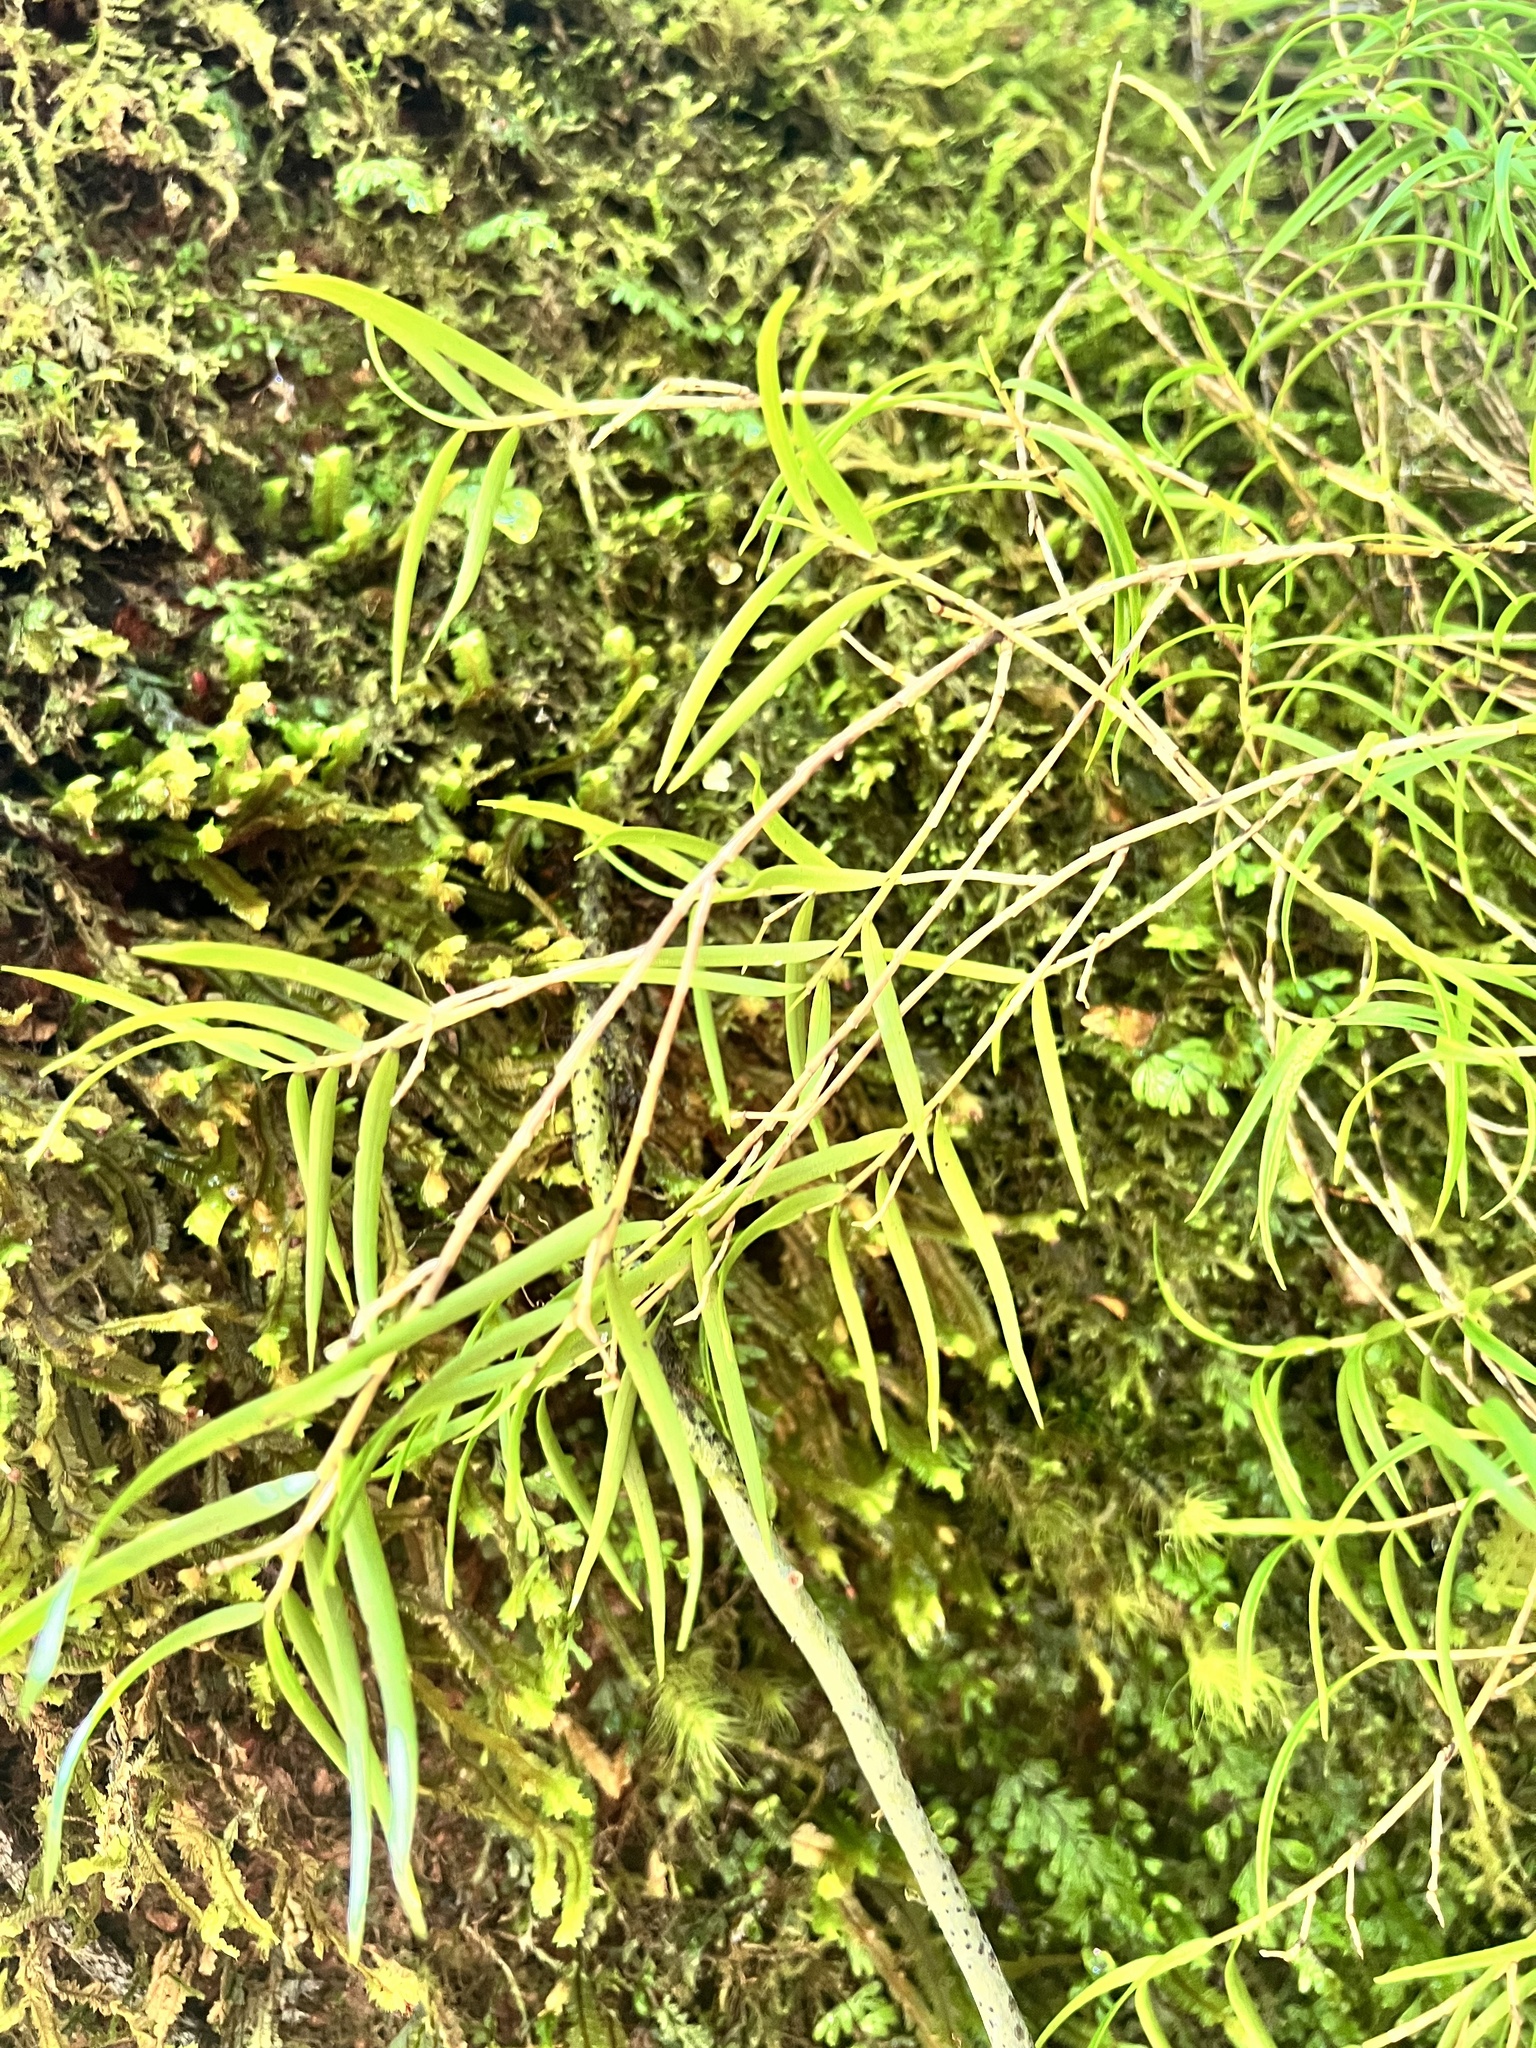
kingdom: Plantae
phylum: Tracheophyta
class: Liliopsida
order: Asparagales
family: Orchidaceae
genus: Dendrobium
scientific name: Dendrobium cunninghamii
